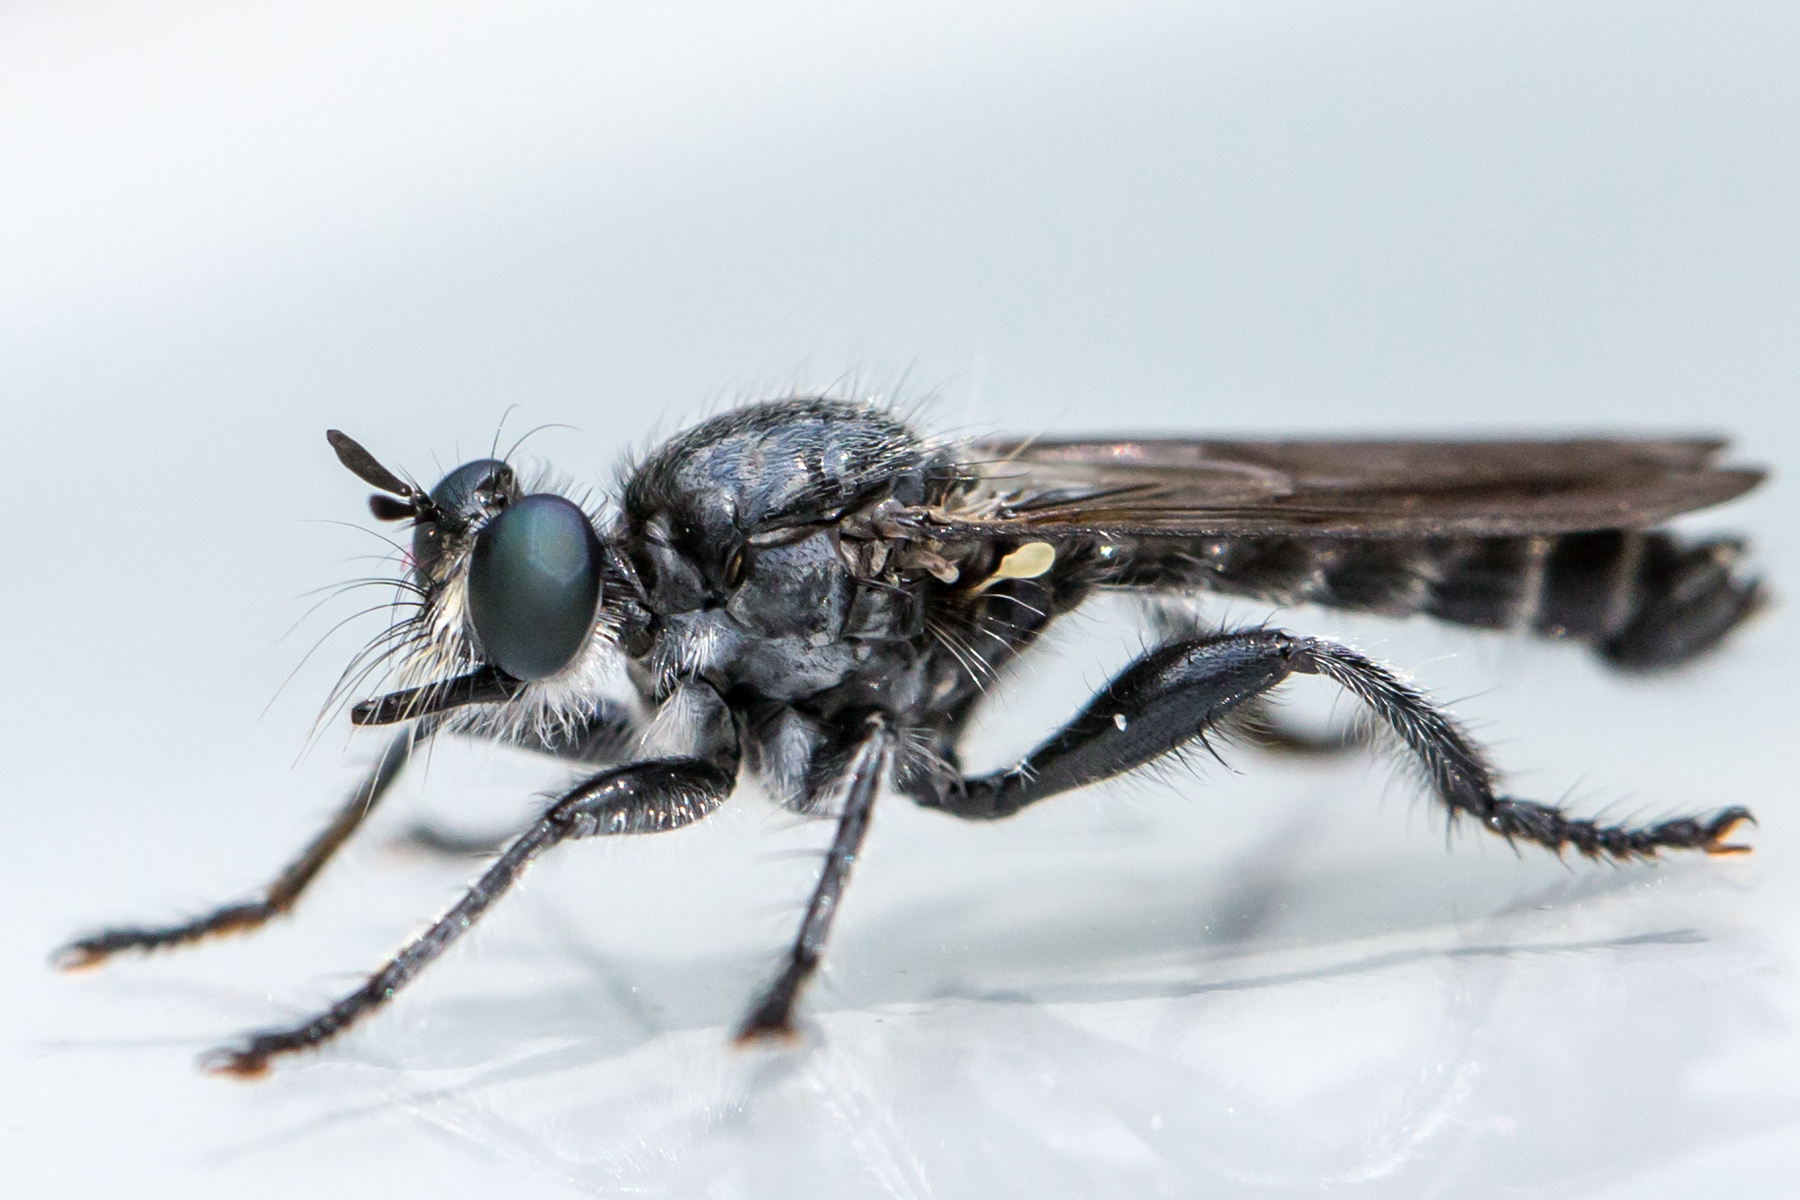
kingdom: Animalia
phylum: Arthropoda
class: Insecta
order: Diptera
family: Asilidae
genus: Laphria
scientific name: Laphria sicula
